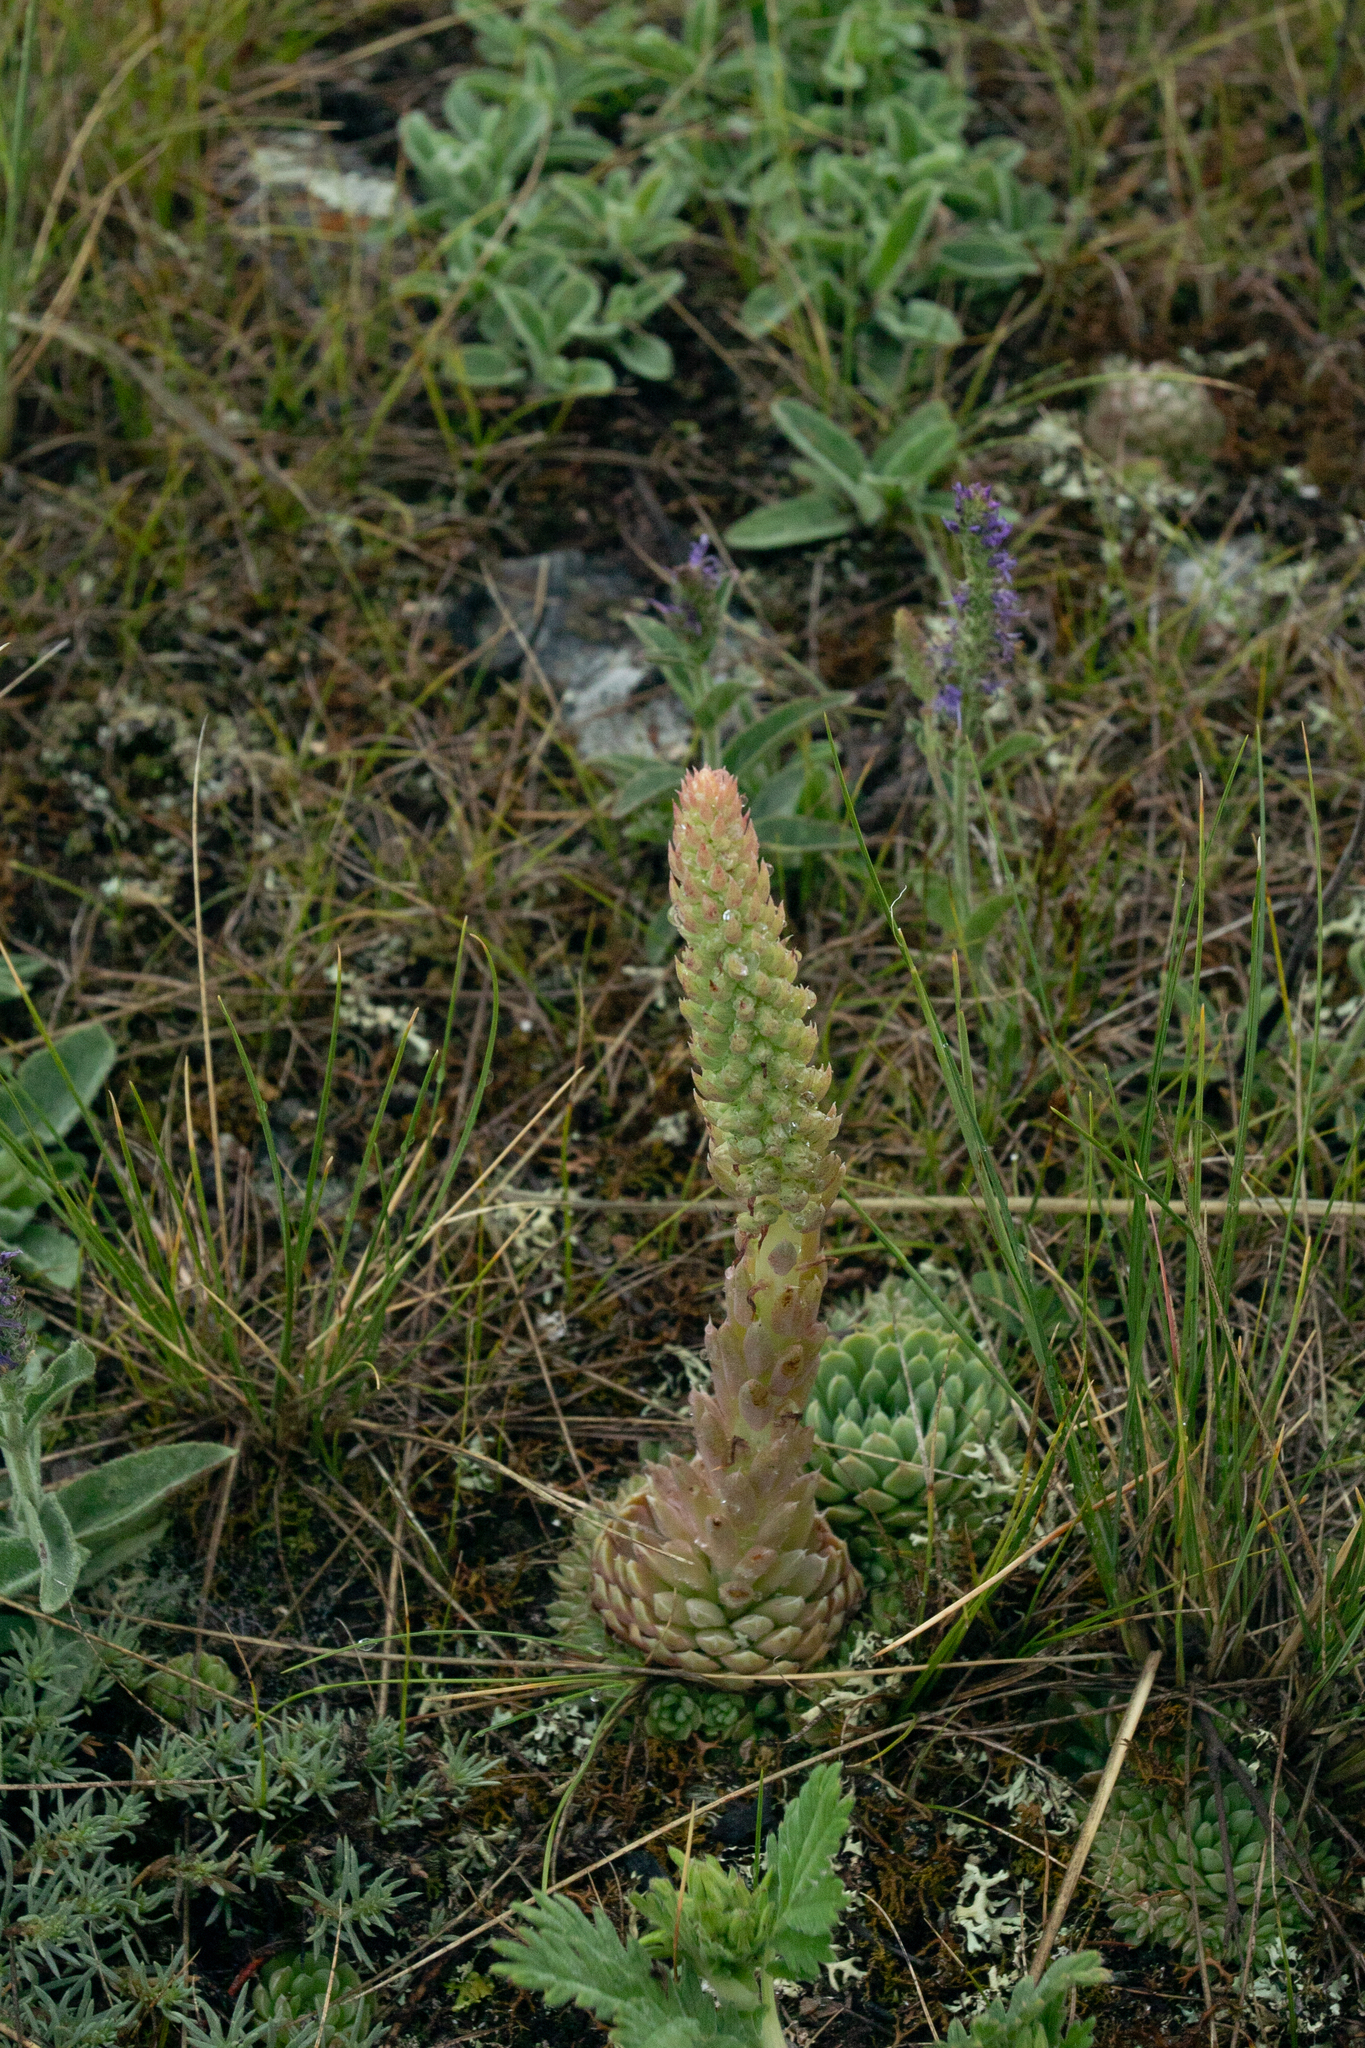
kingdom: Plantae
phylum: Tracheophyta
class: Magnoliopsida
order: Saxifragales
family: Crassulaceae
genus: Orostachys
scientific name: Orostachys spinosa
